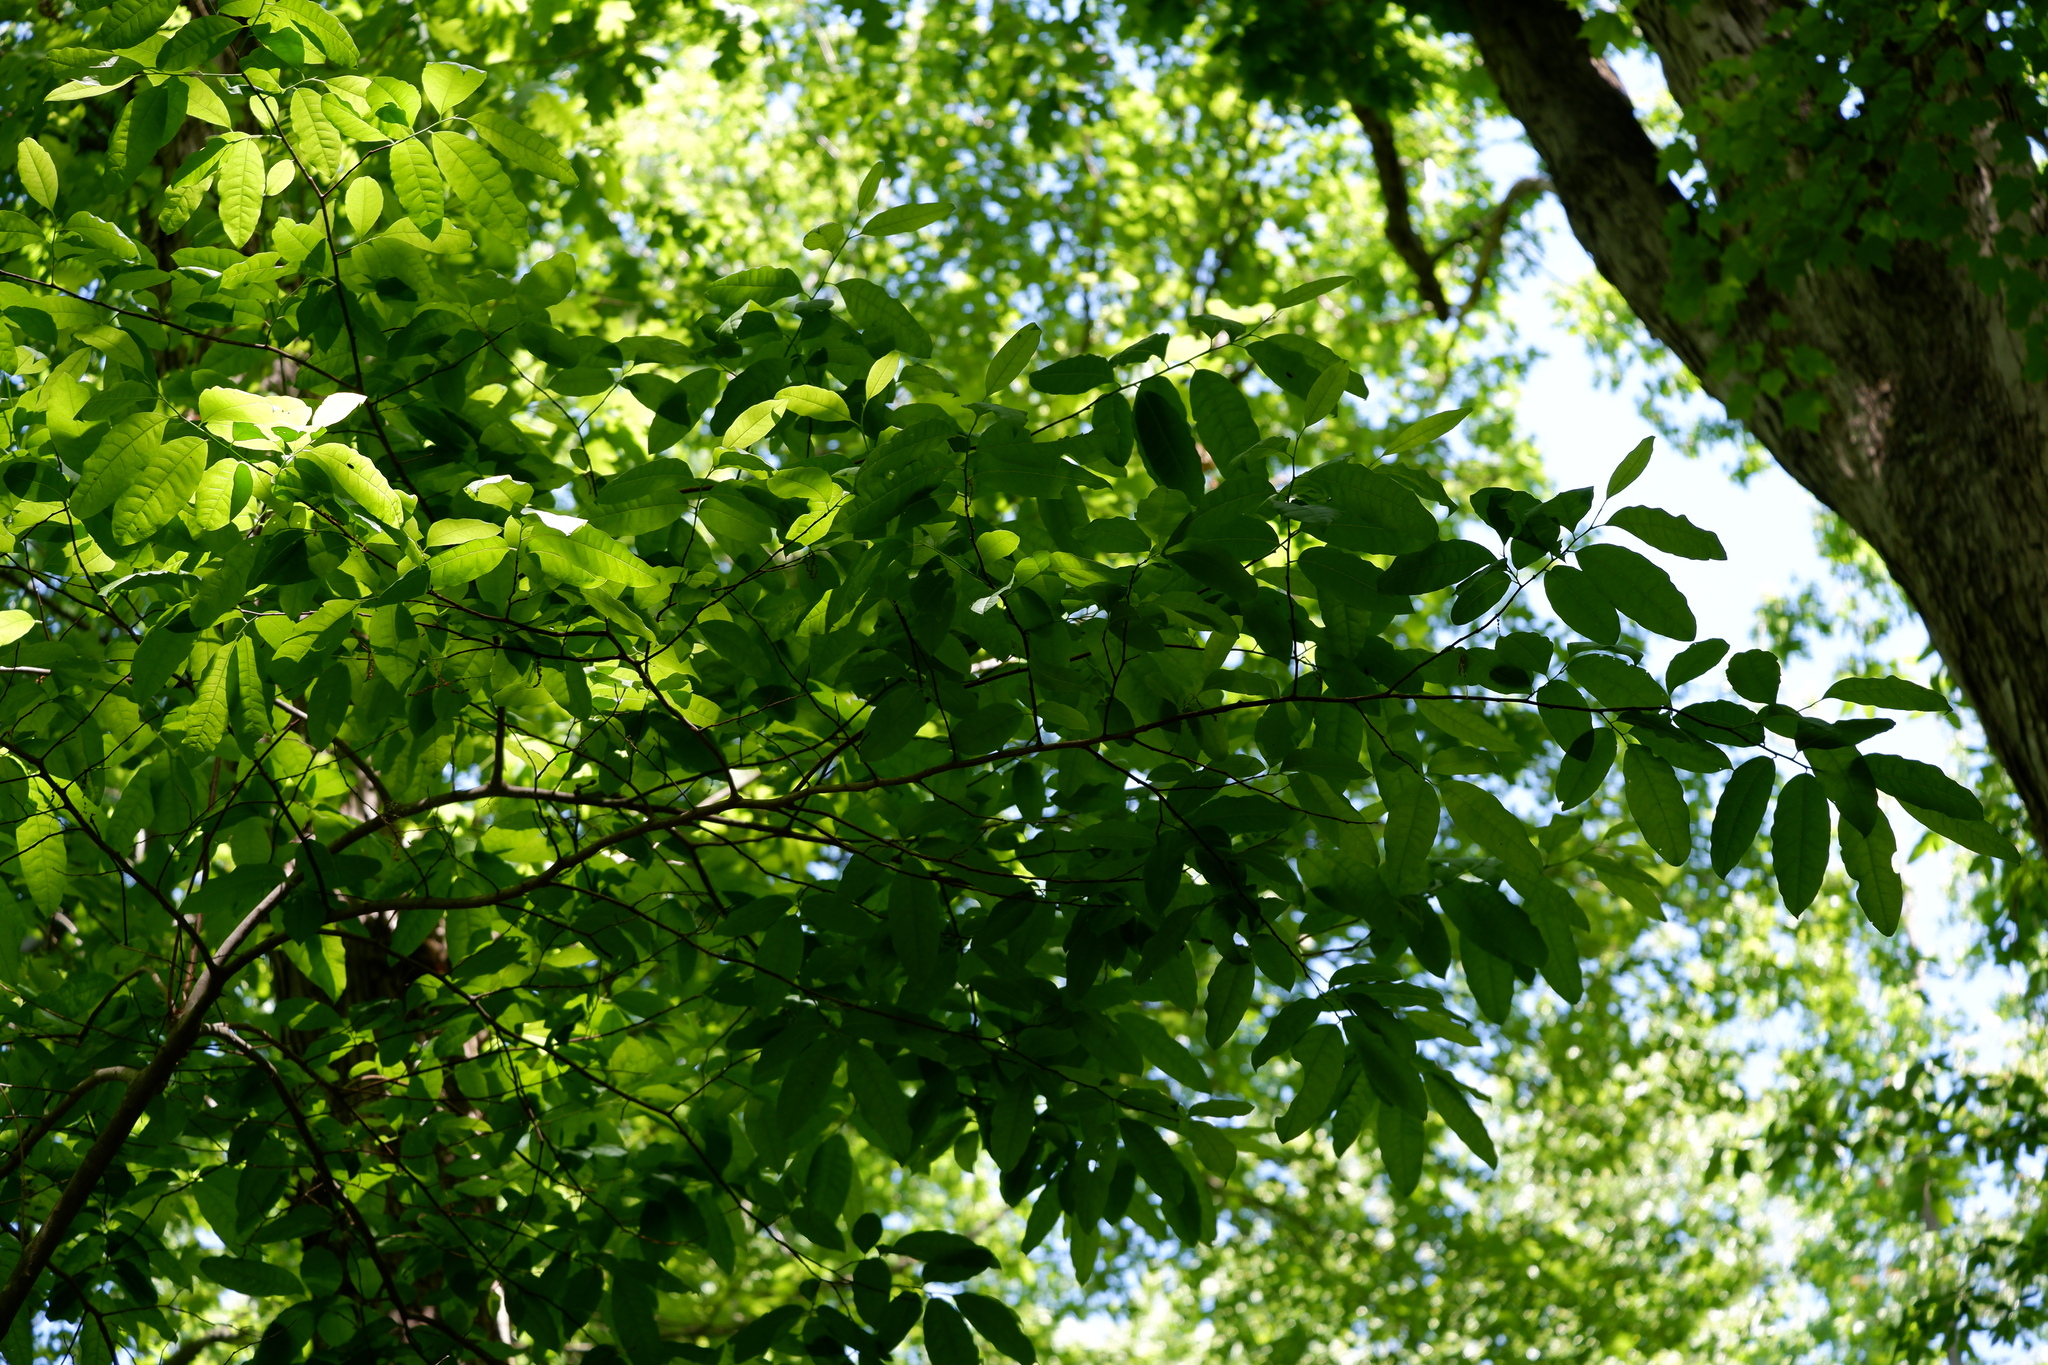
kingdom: Plantae
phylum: Tracheophyta
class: Magnoliopsida
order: Ericales
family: Ericaceae
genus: Oxydendrum
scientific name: Oxydendrum arboreum
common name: Sourwood
